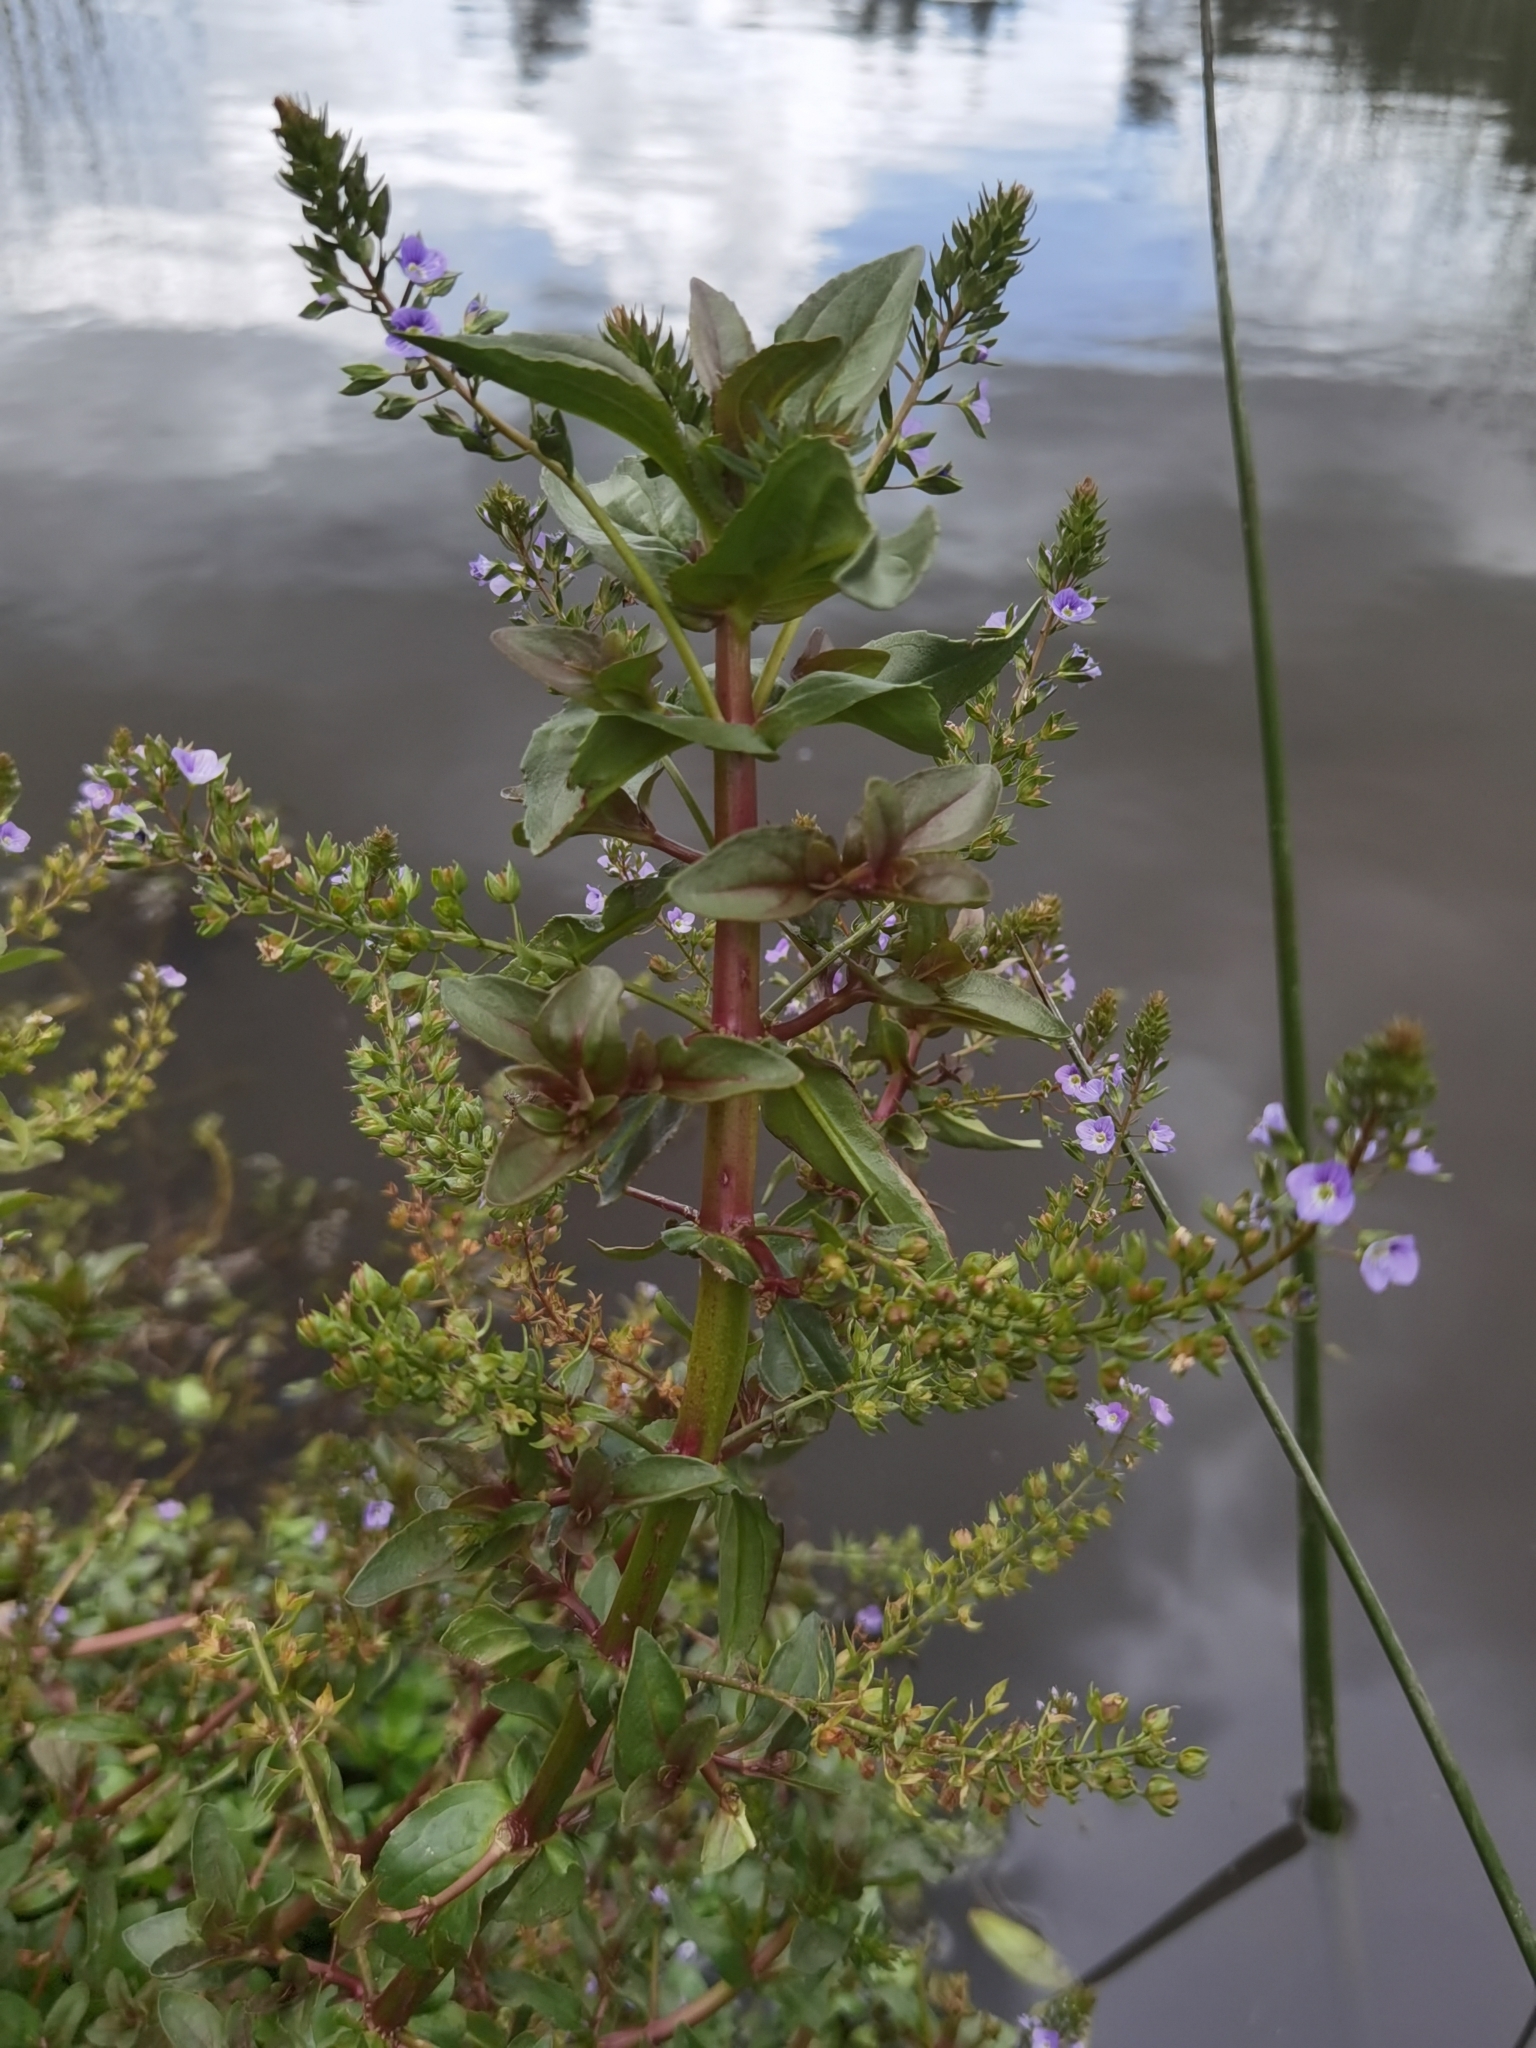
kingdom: Plantae
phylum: Tracheophyta
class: Magnoliopsida
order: Lamiales
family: Plantaginaceae
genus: Veronica
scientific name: Veronica anagallis-aquatica
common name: Water speedwell
